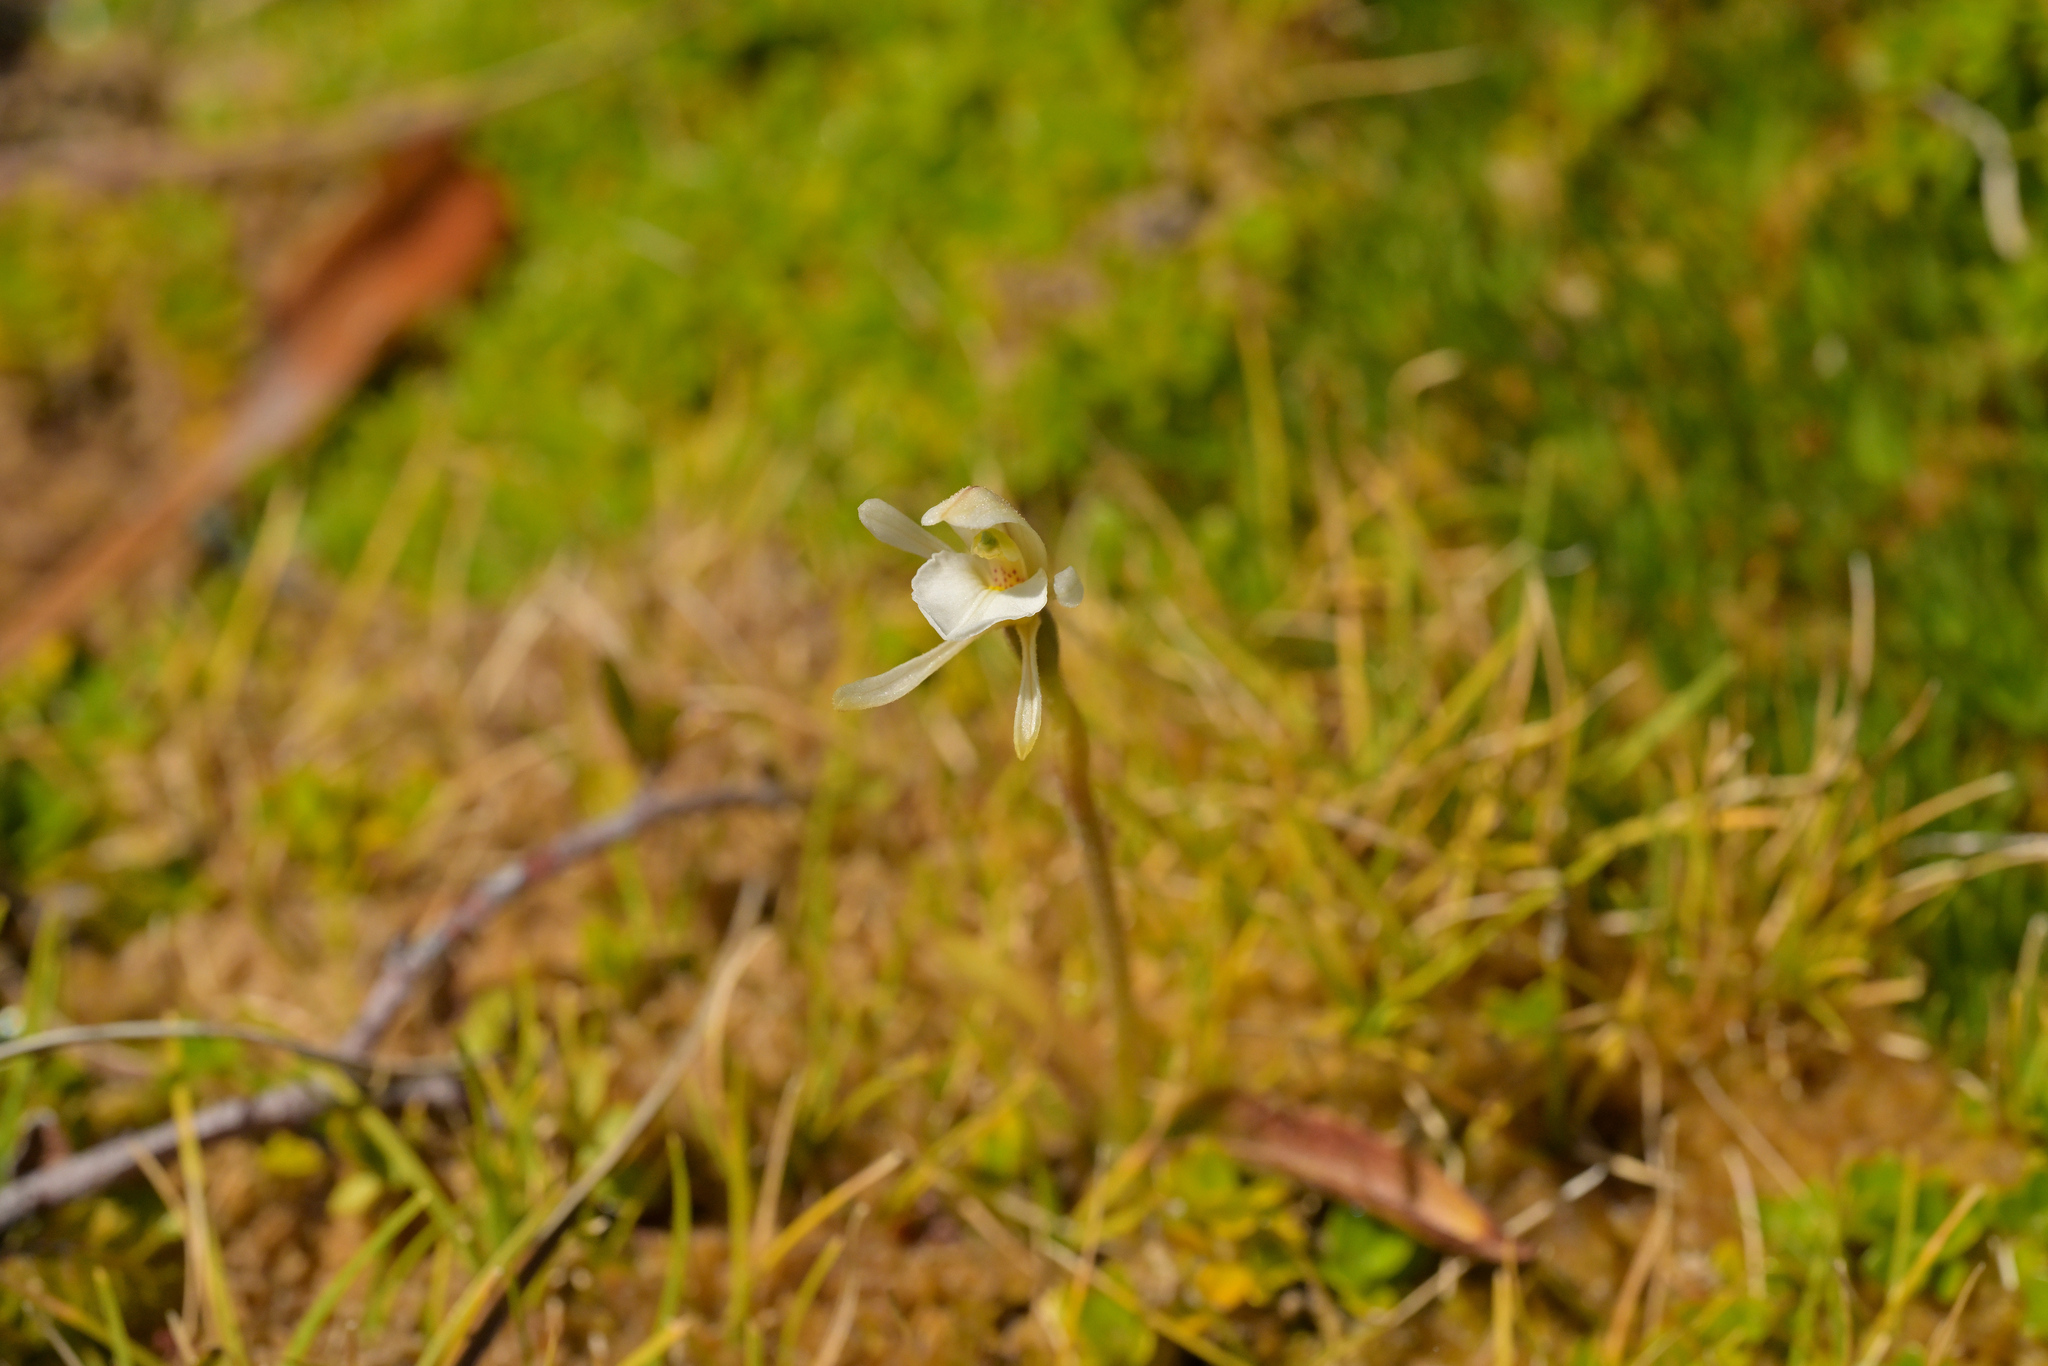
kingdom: Plantae
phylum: Tracheophyta
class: Liliopsida
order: Asparagales
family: Orchidaceae
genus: Aporostylis
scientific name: Aporostylis bifolia
